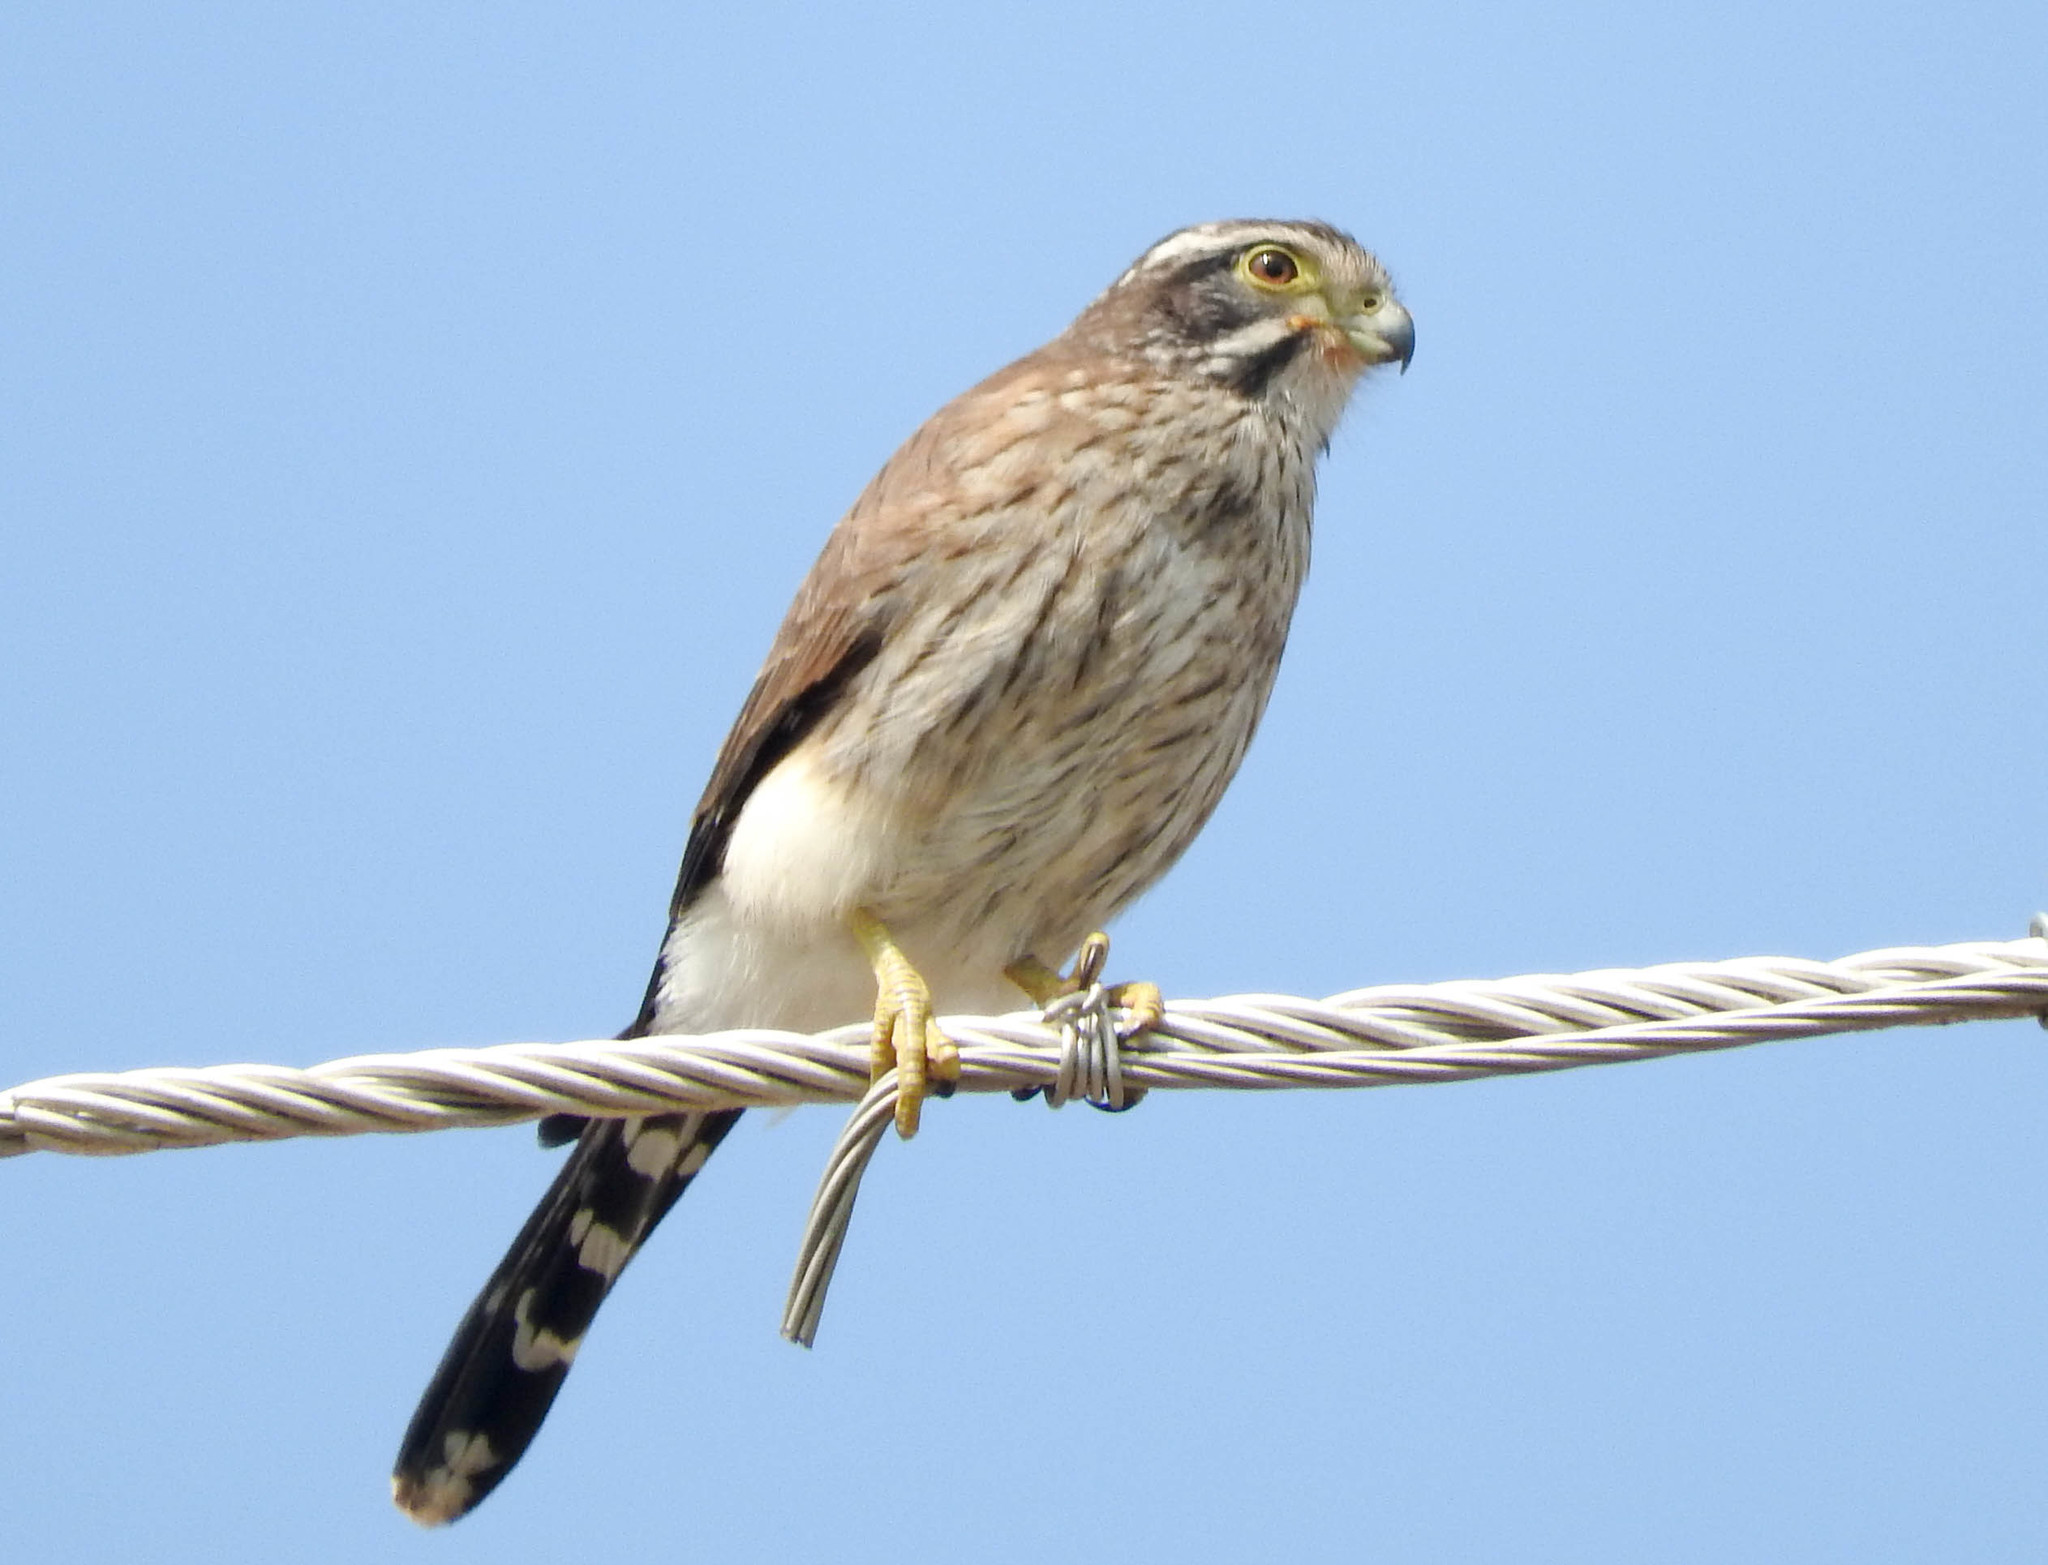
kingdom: Animalia
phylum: Chordata
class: Aves
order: Falconiformes
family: Falconidae
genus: Spiziapteryx
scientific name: Spiziapteryx circumcincta
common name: Spot-winged falconet
